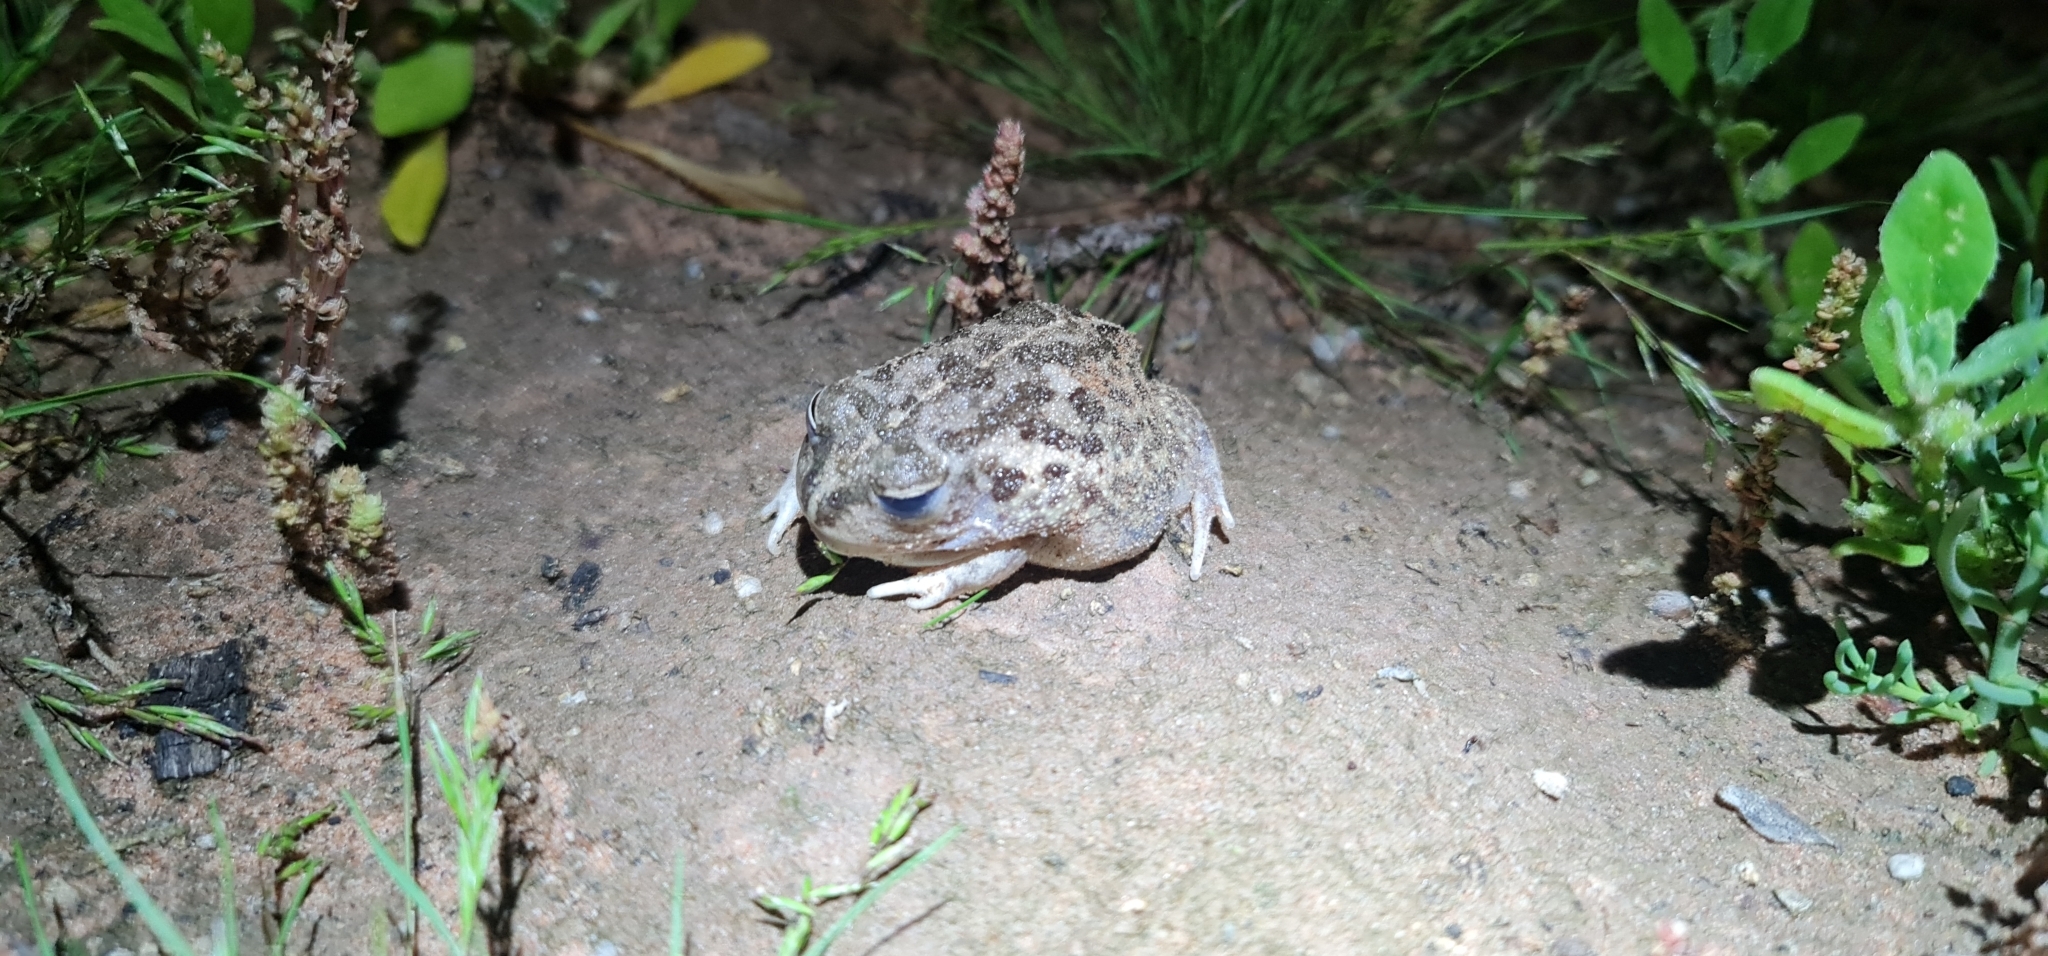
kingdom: Animalia
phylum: Chordata
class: Amphibia
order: Anura
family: Limnodynastidae
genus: Neobatrachus
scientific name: Neobatrachus sudelli
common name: Common spadefoot toad
